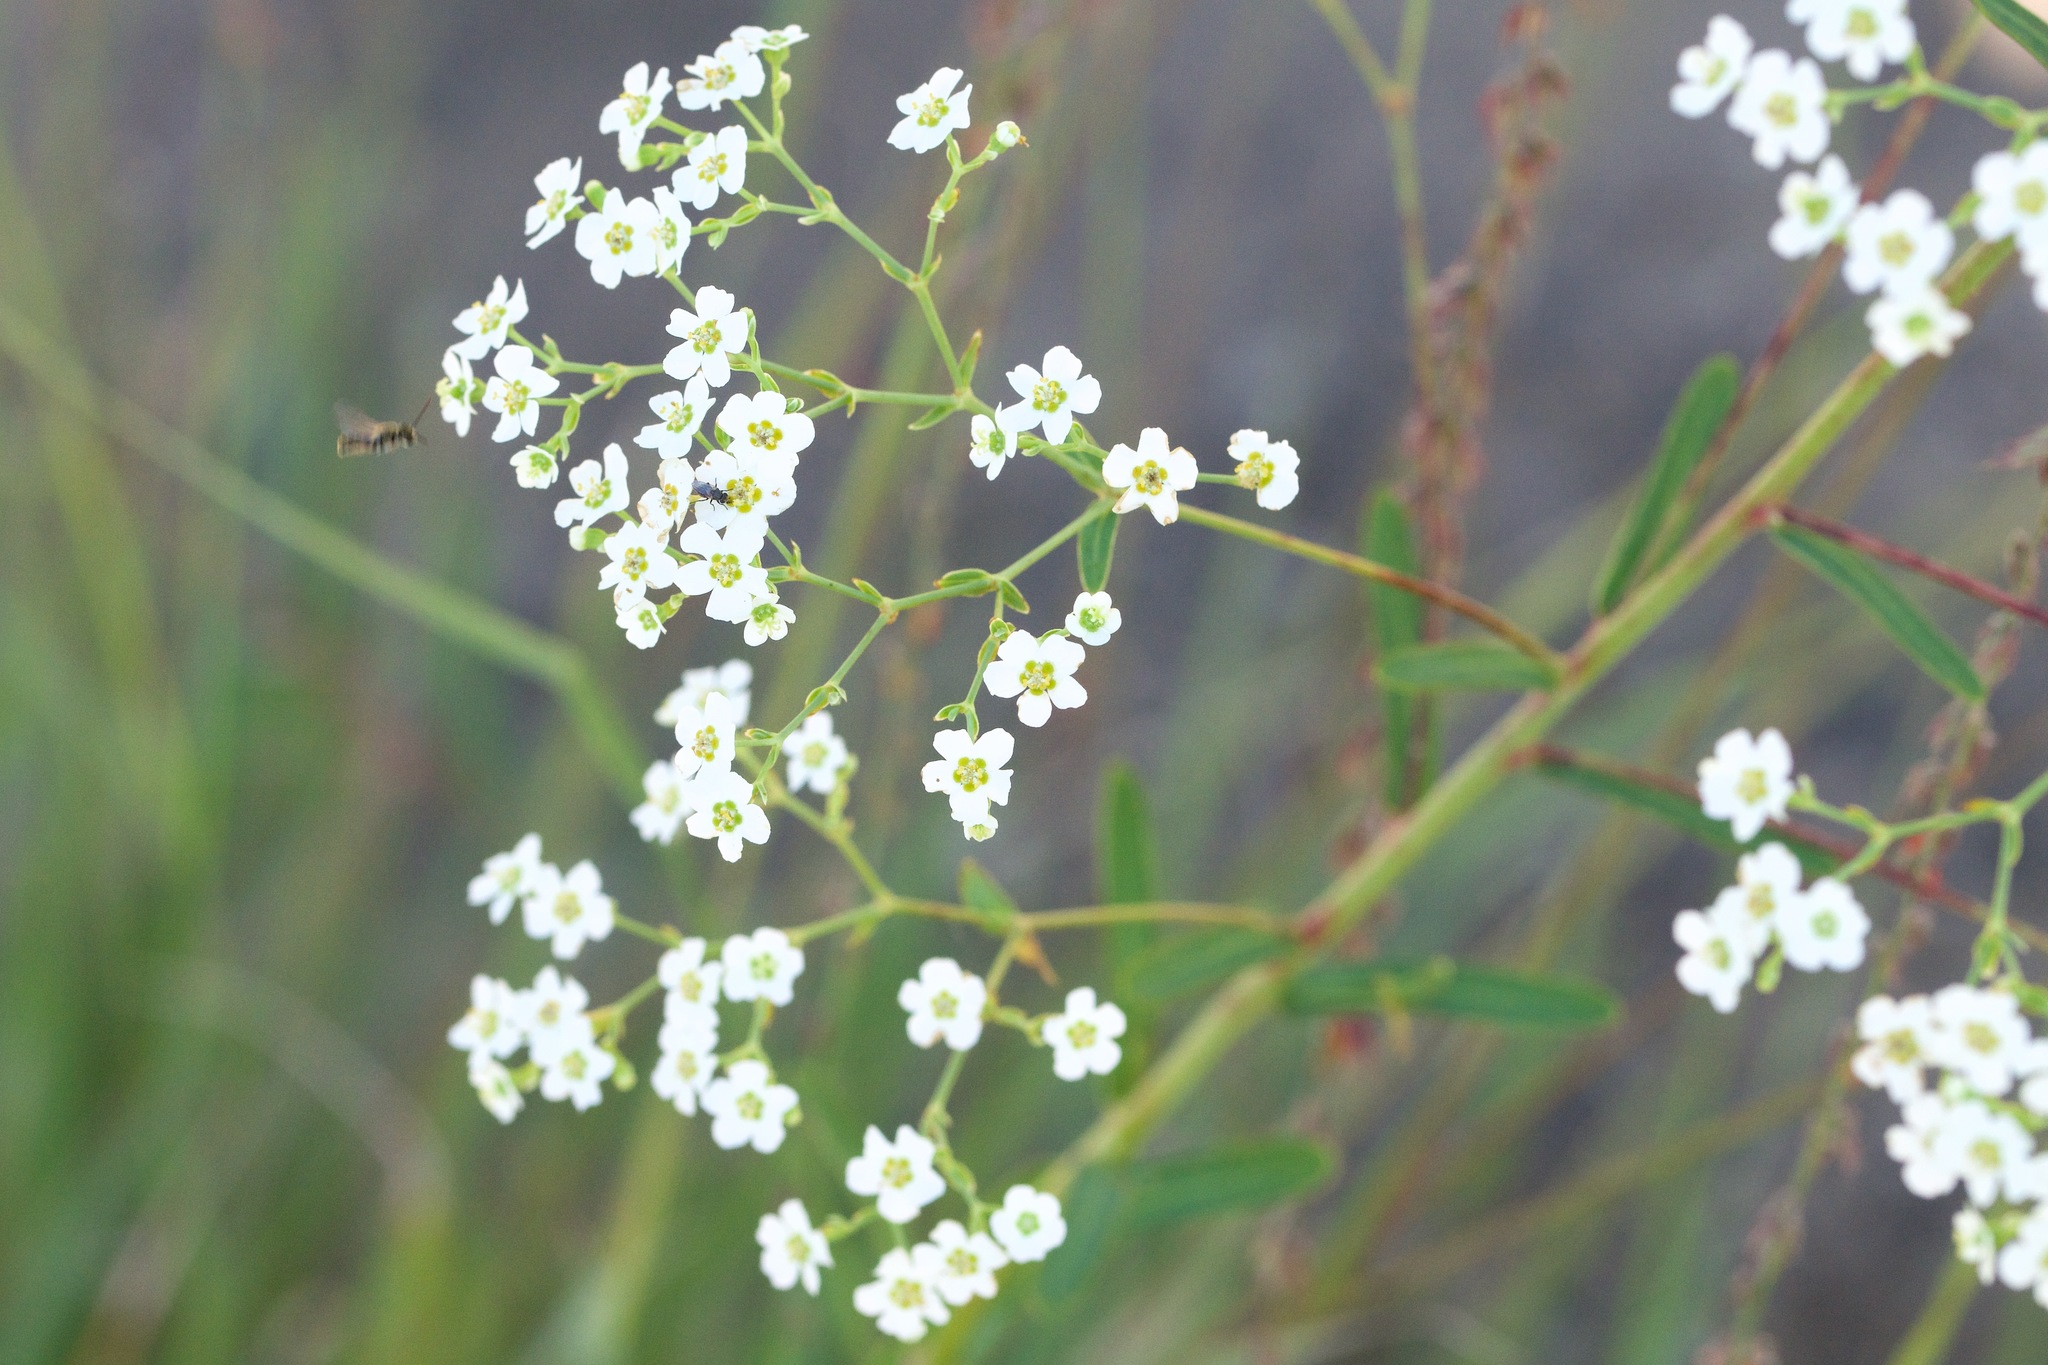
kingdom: Plantae
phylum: Tracheophyta
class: Magnoliopsida
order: Malpighiales
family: Euphorbiaceae
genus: Euphorbia
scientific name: Euphorbia corollata
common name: Flowering spurge
